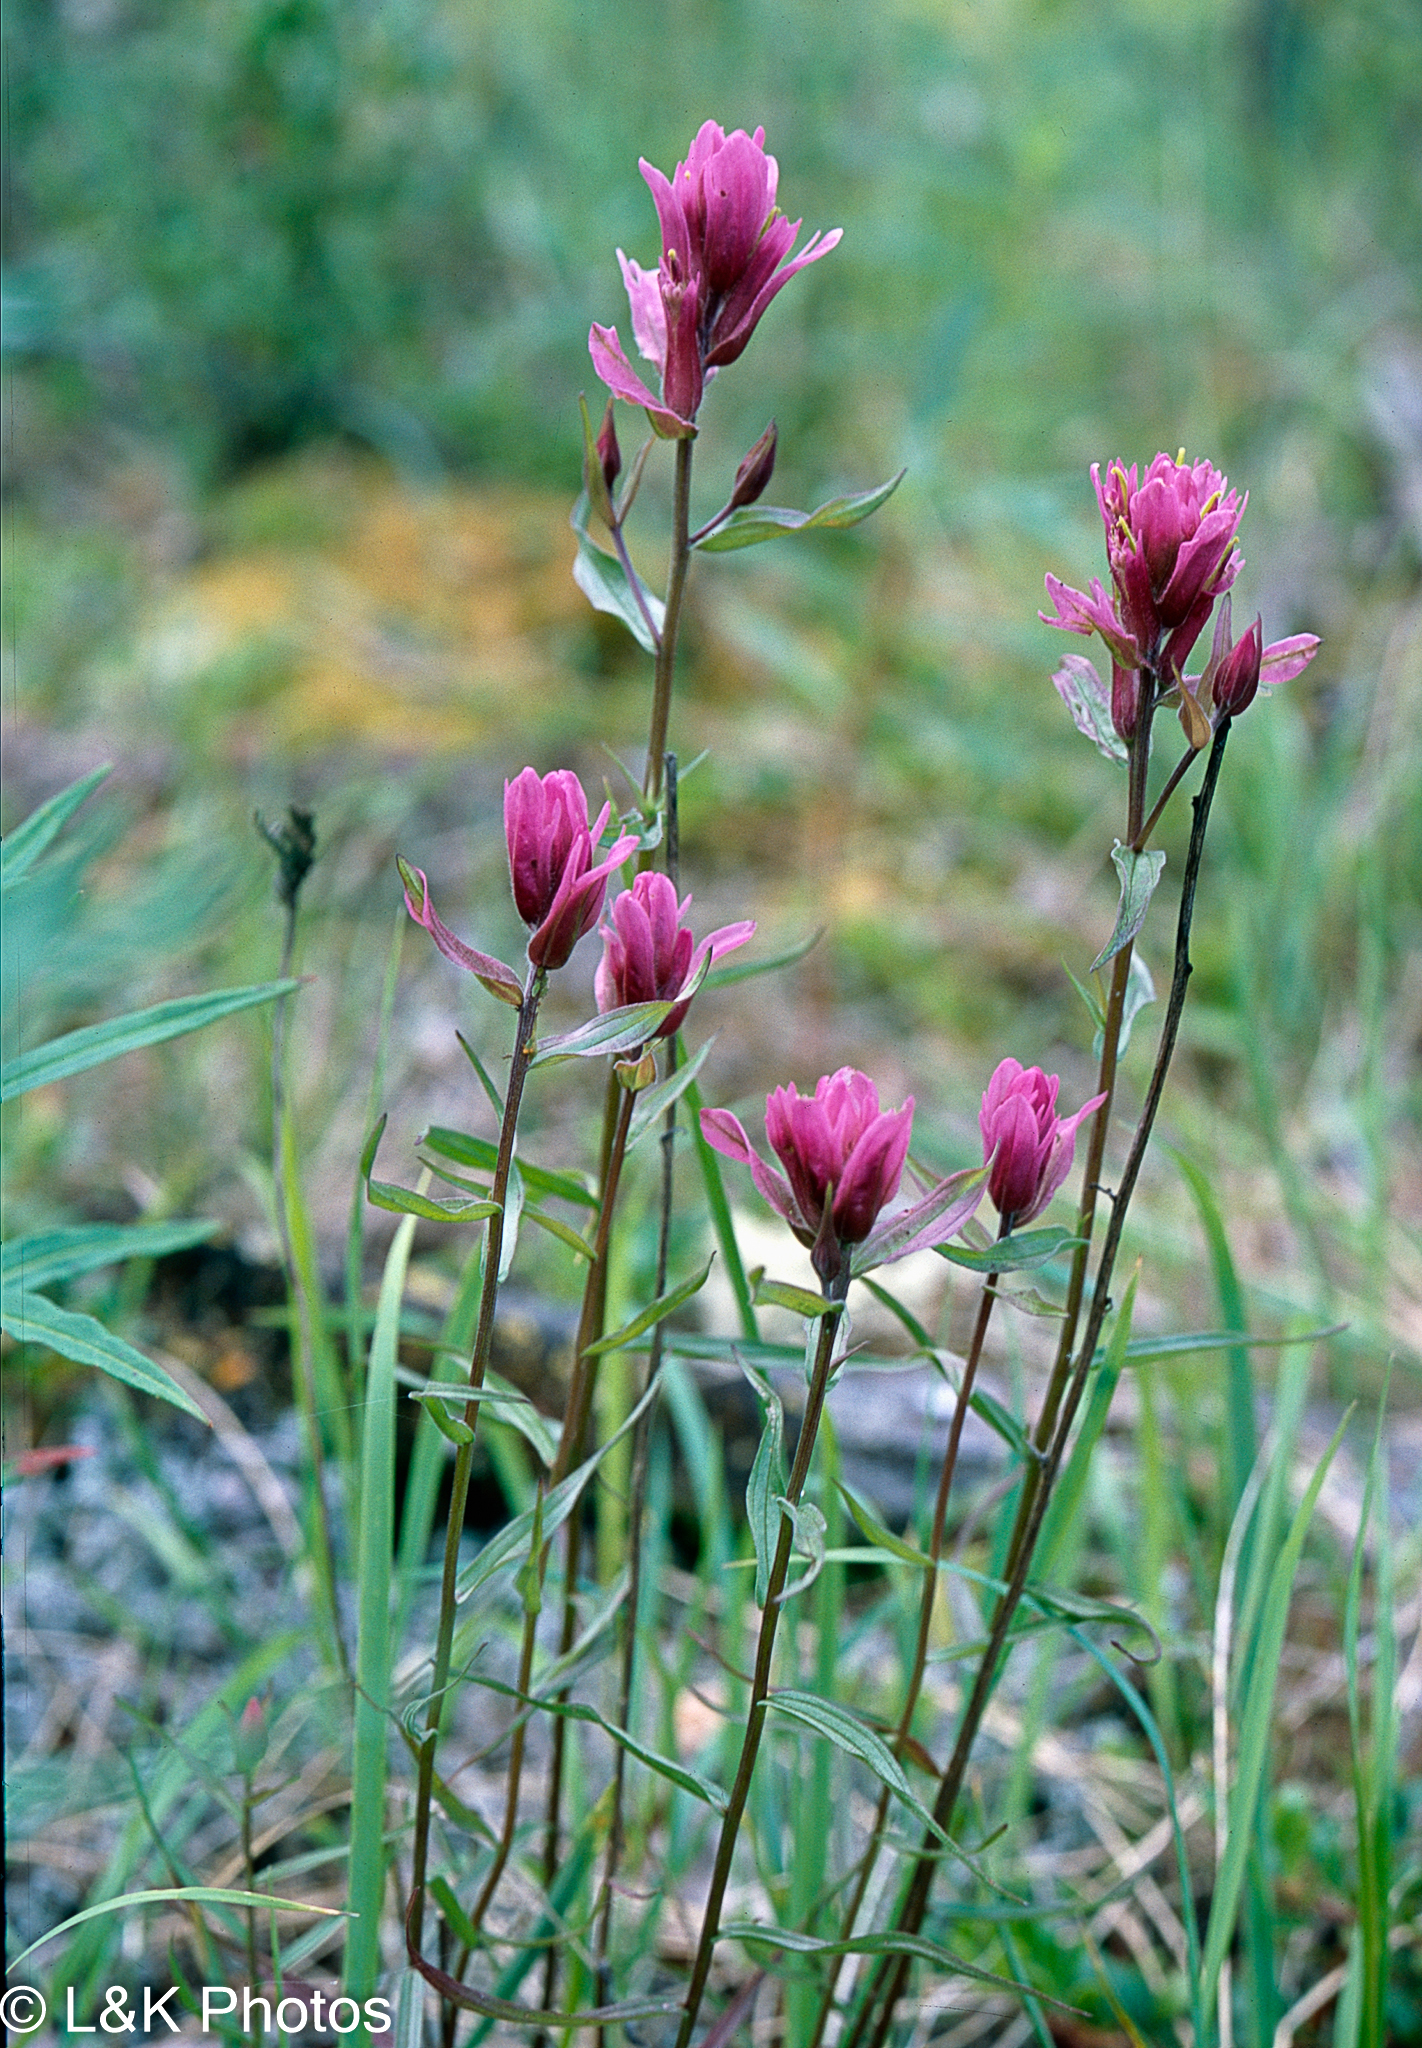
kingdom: Plantae
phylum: Tracheophyta
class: Magnoliopsida
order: Lamiales
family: Orobanchaceae
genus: Castilleja
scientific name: Castilleja raupii
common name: Raup's paintbrush
